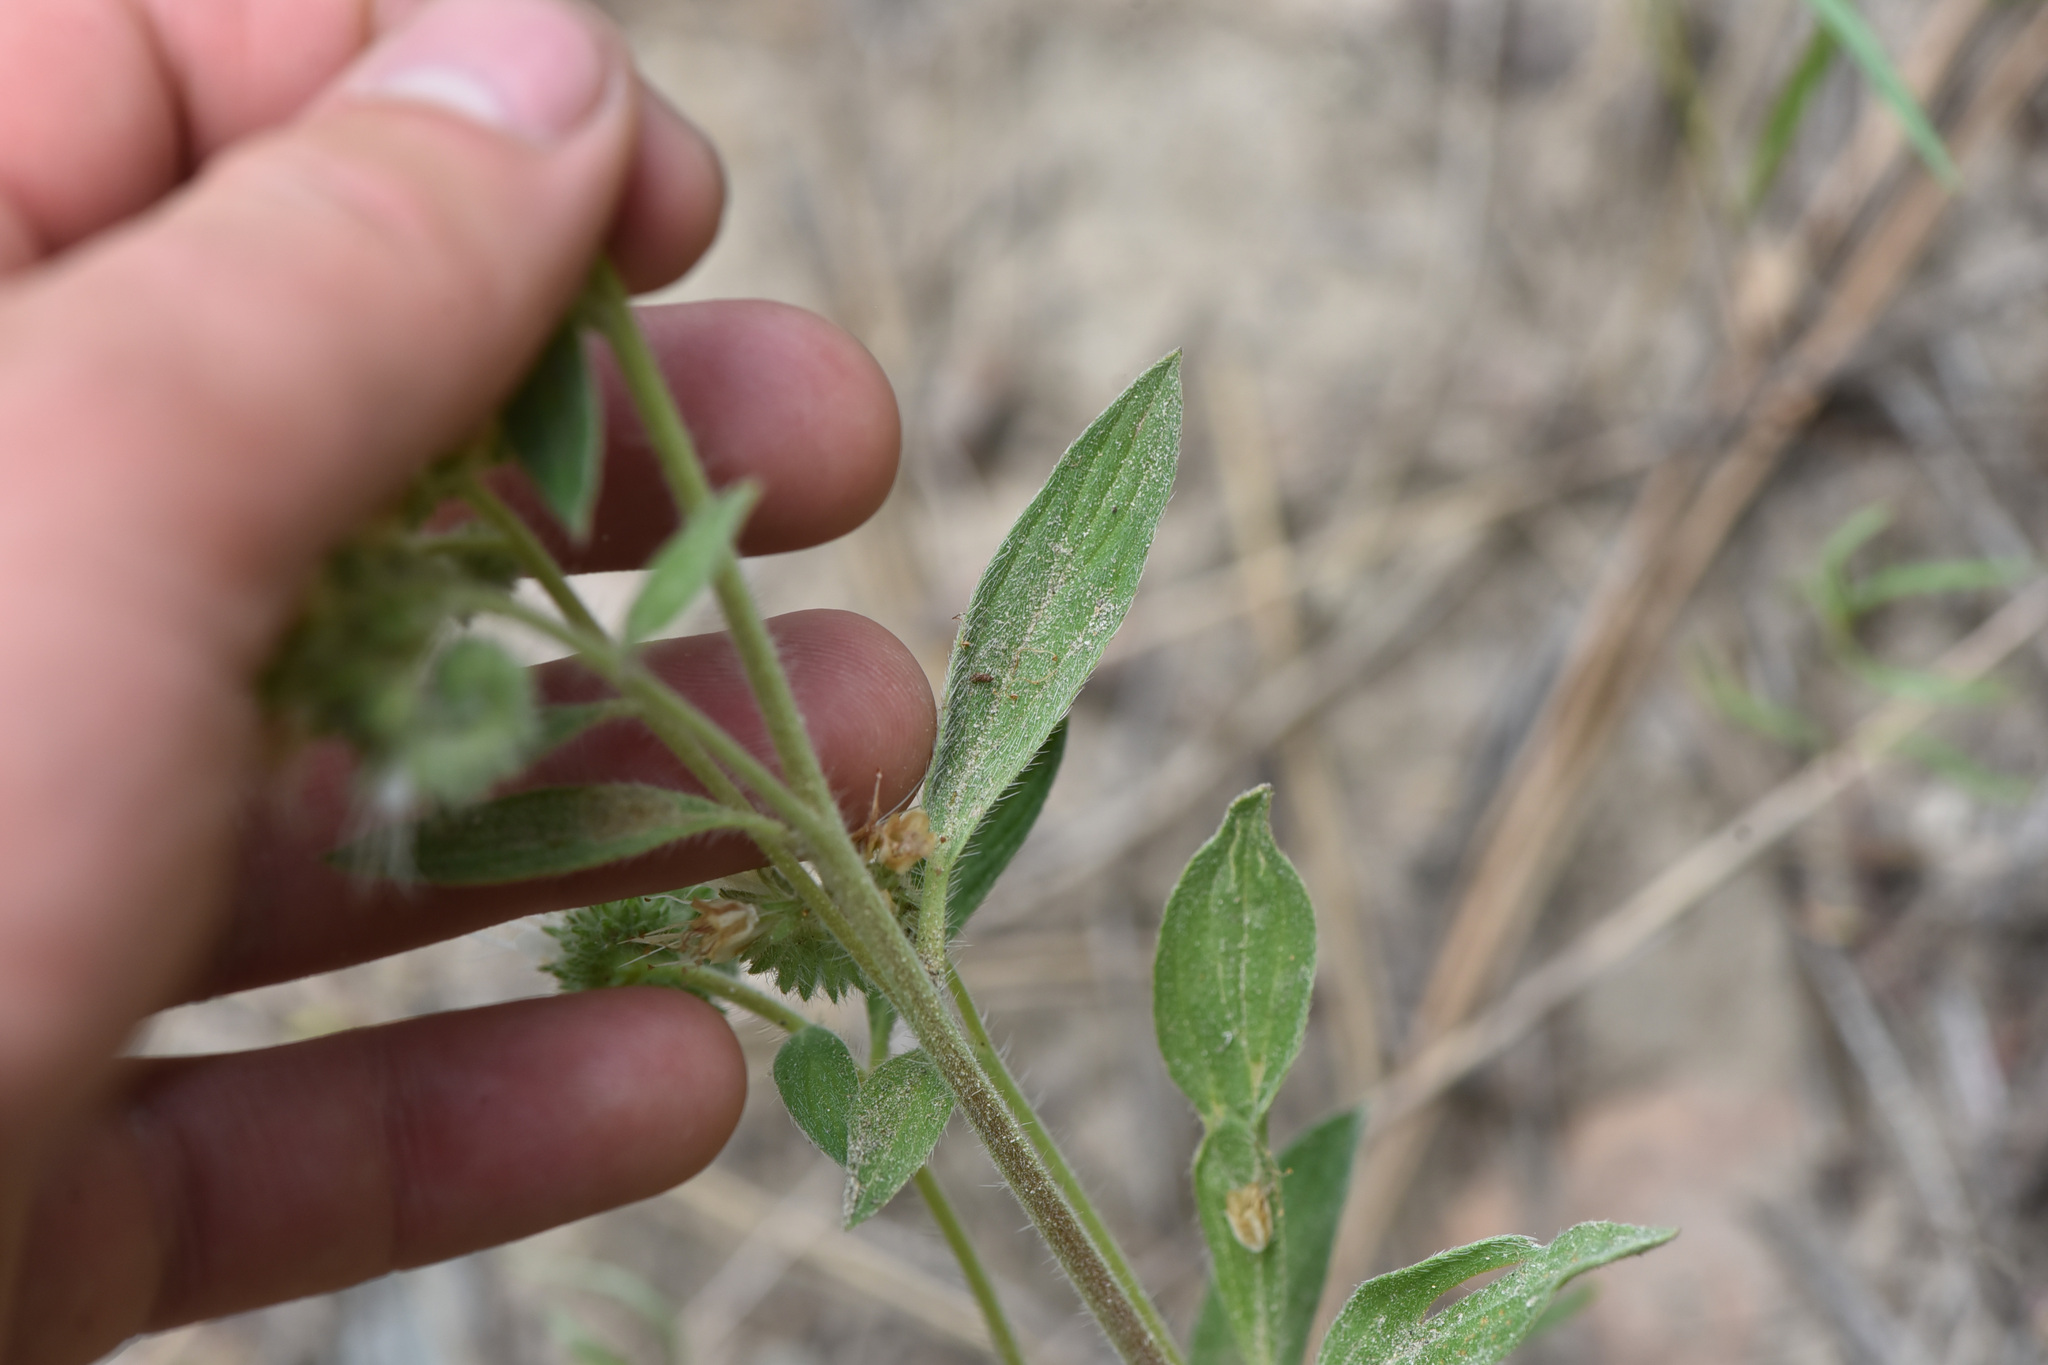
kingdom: Plantae
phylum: Tracheophyta
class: Magnoliopsida
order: Boraginales
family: Hydrophyllaceae
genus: Phacelia
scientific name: Phacelia hastata
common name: Silver-leaved phacelia
